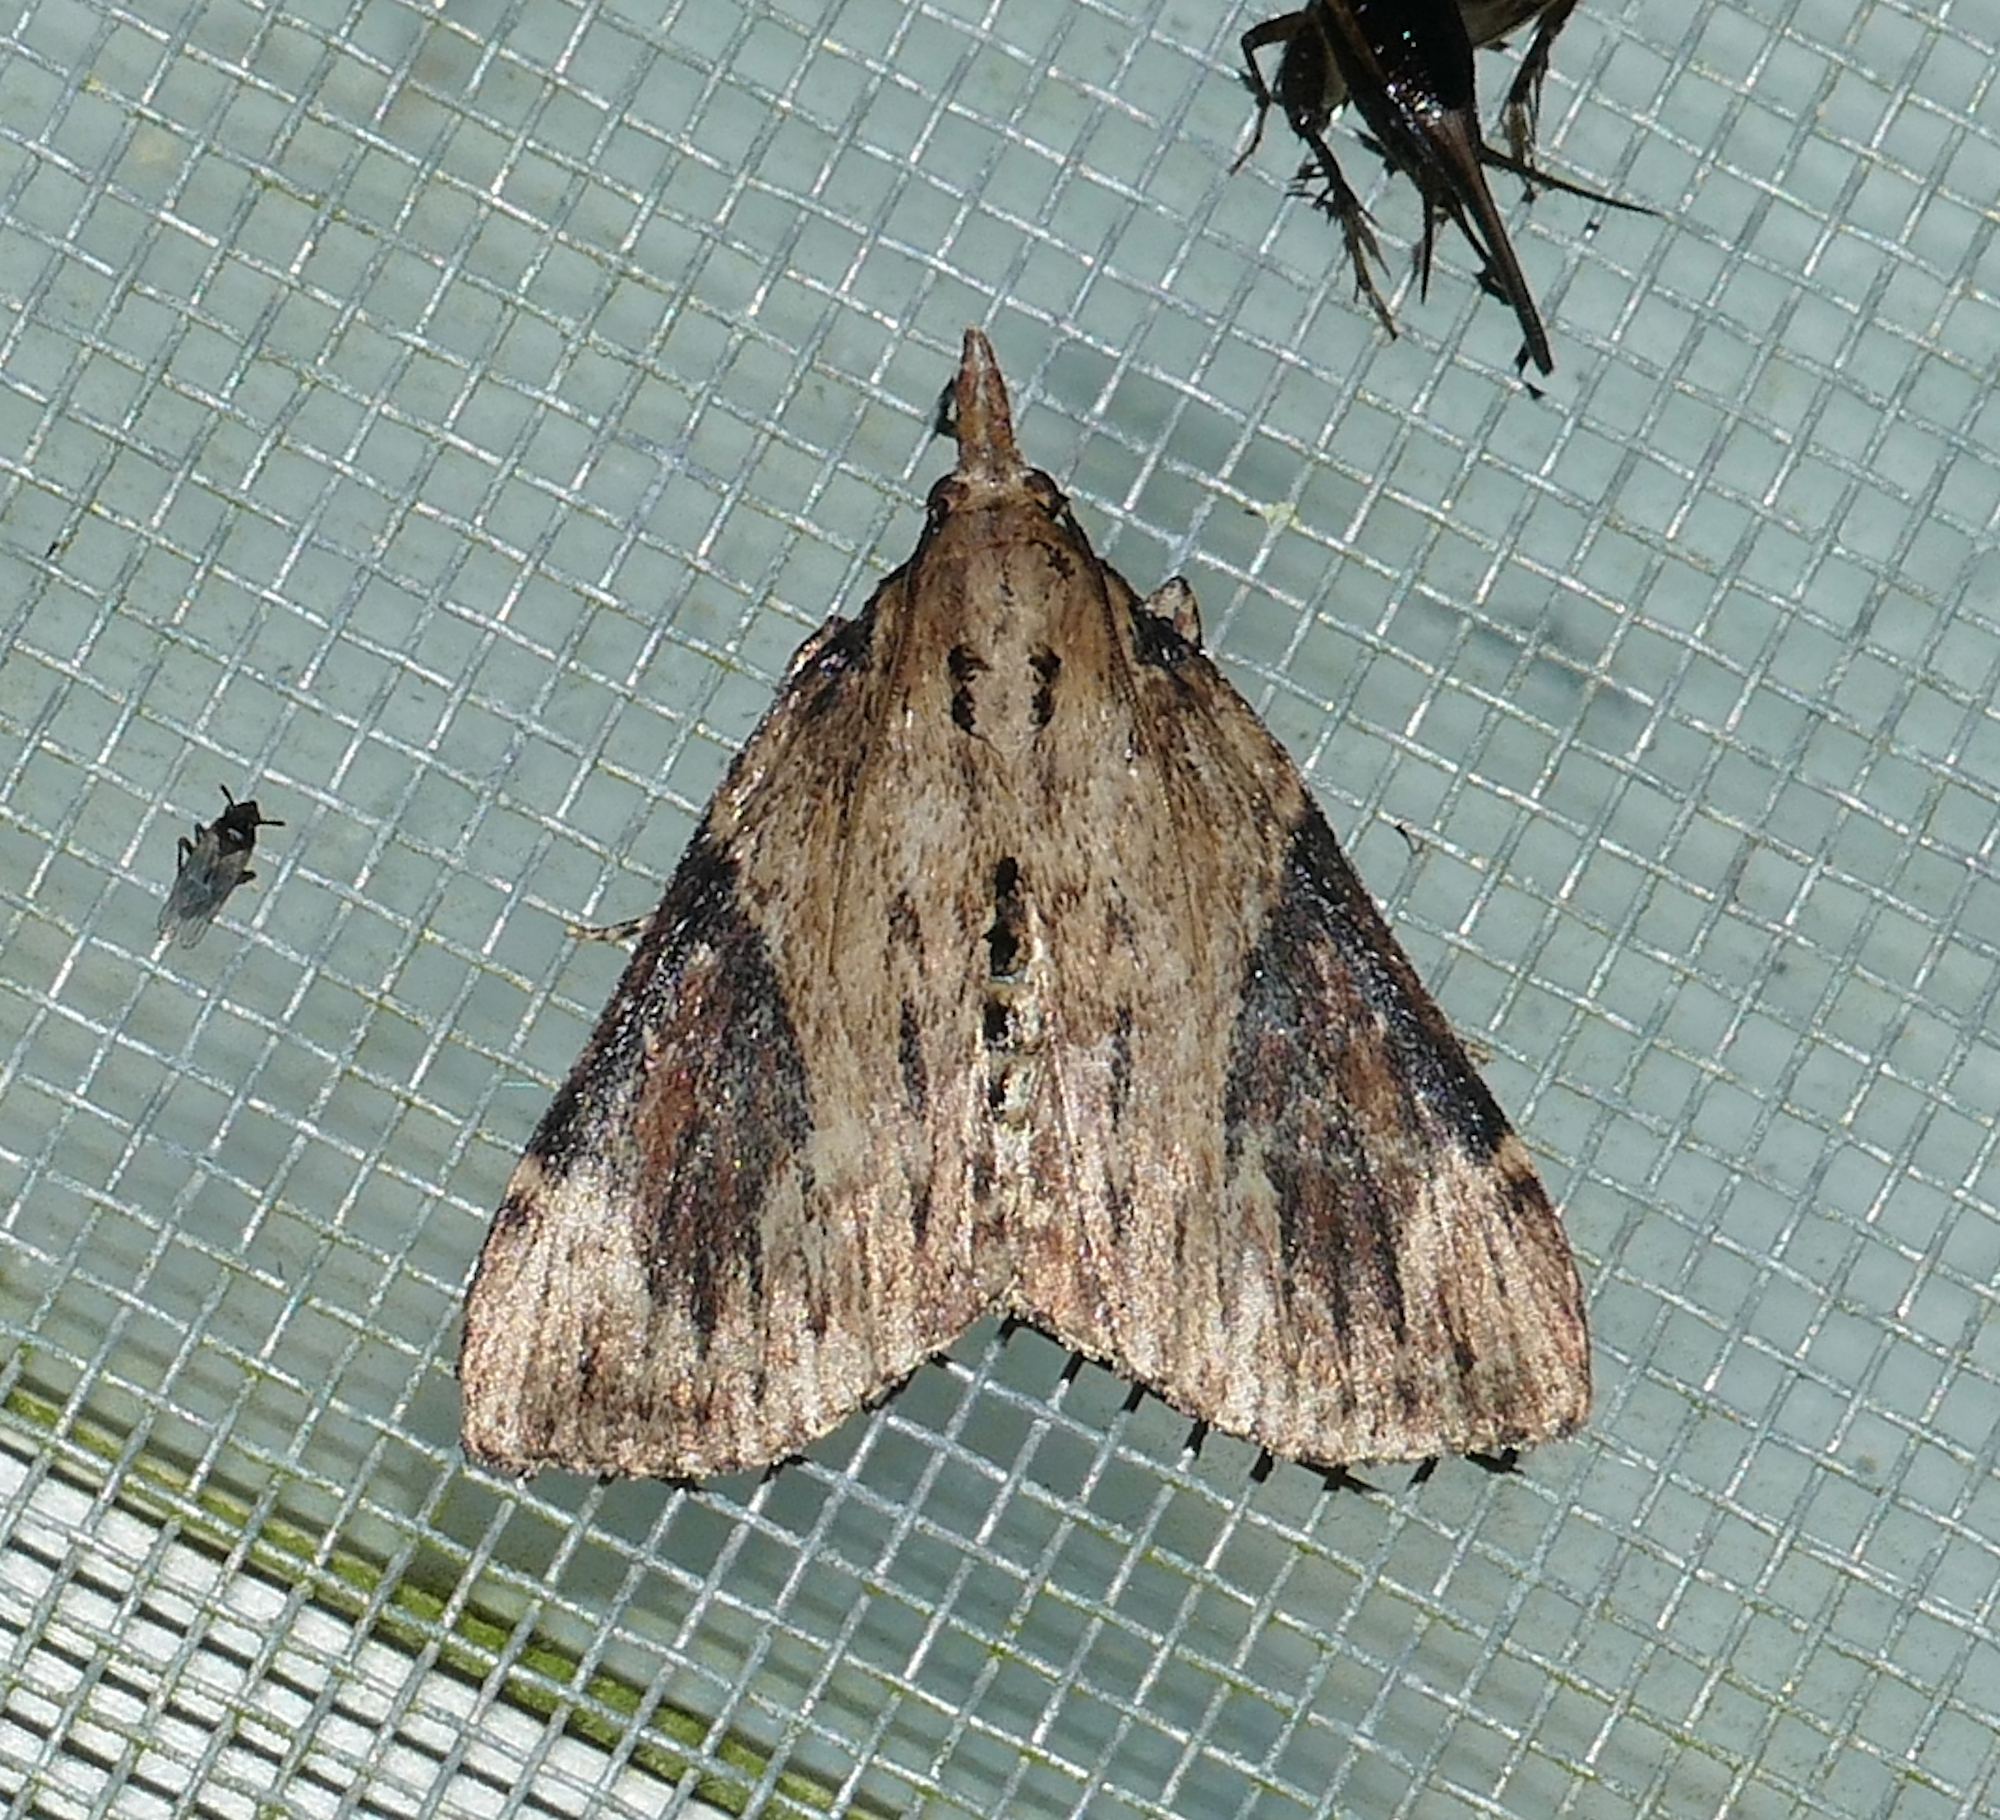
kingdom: Animalia
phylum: Arthropoda
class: Insecta
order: Lepidoptera
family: Pyralidae
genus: Omphalocera
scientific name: Omphalocera cariosa
